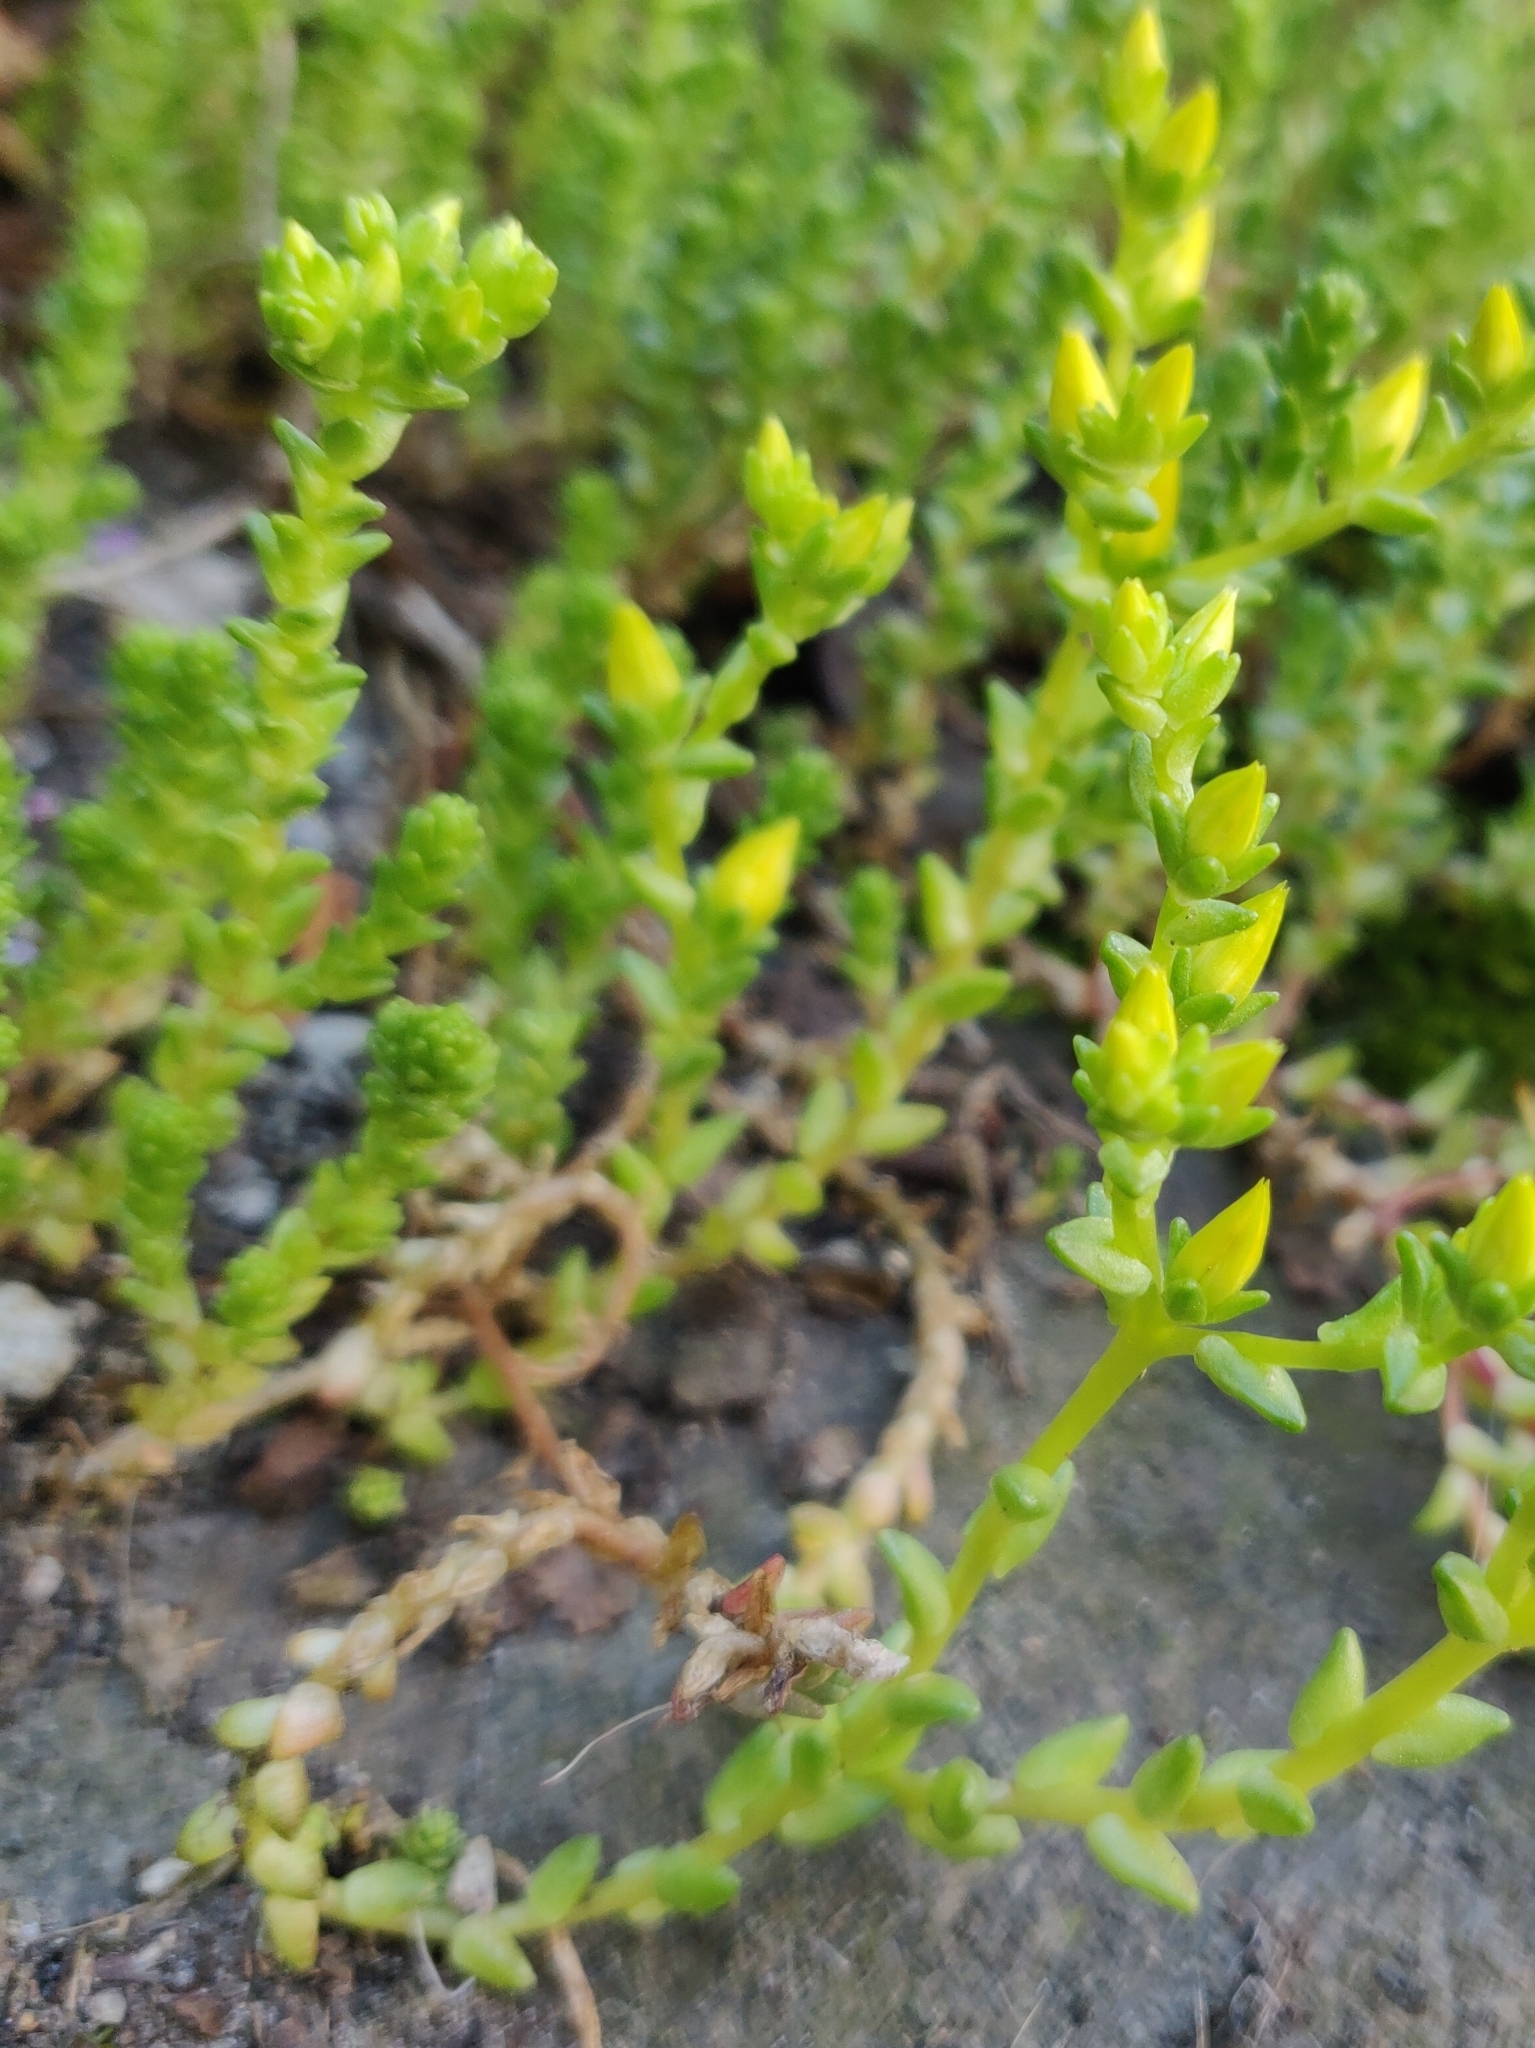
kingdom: Plantae
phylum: Tracheophyta
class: Magnoliopsida
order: Saxifragales
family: Crassulaceae
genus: Sedum
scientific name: Sedum acre
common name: Biting stonecrop
